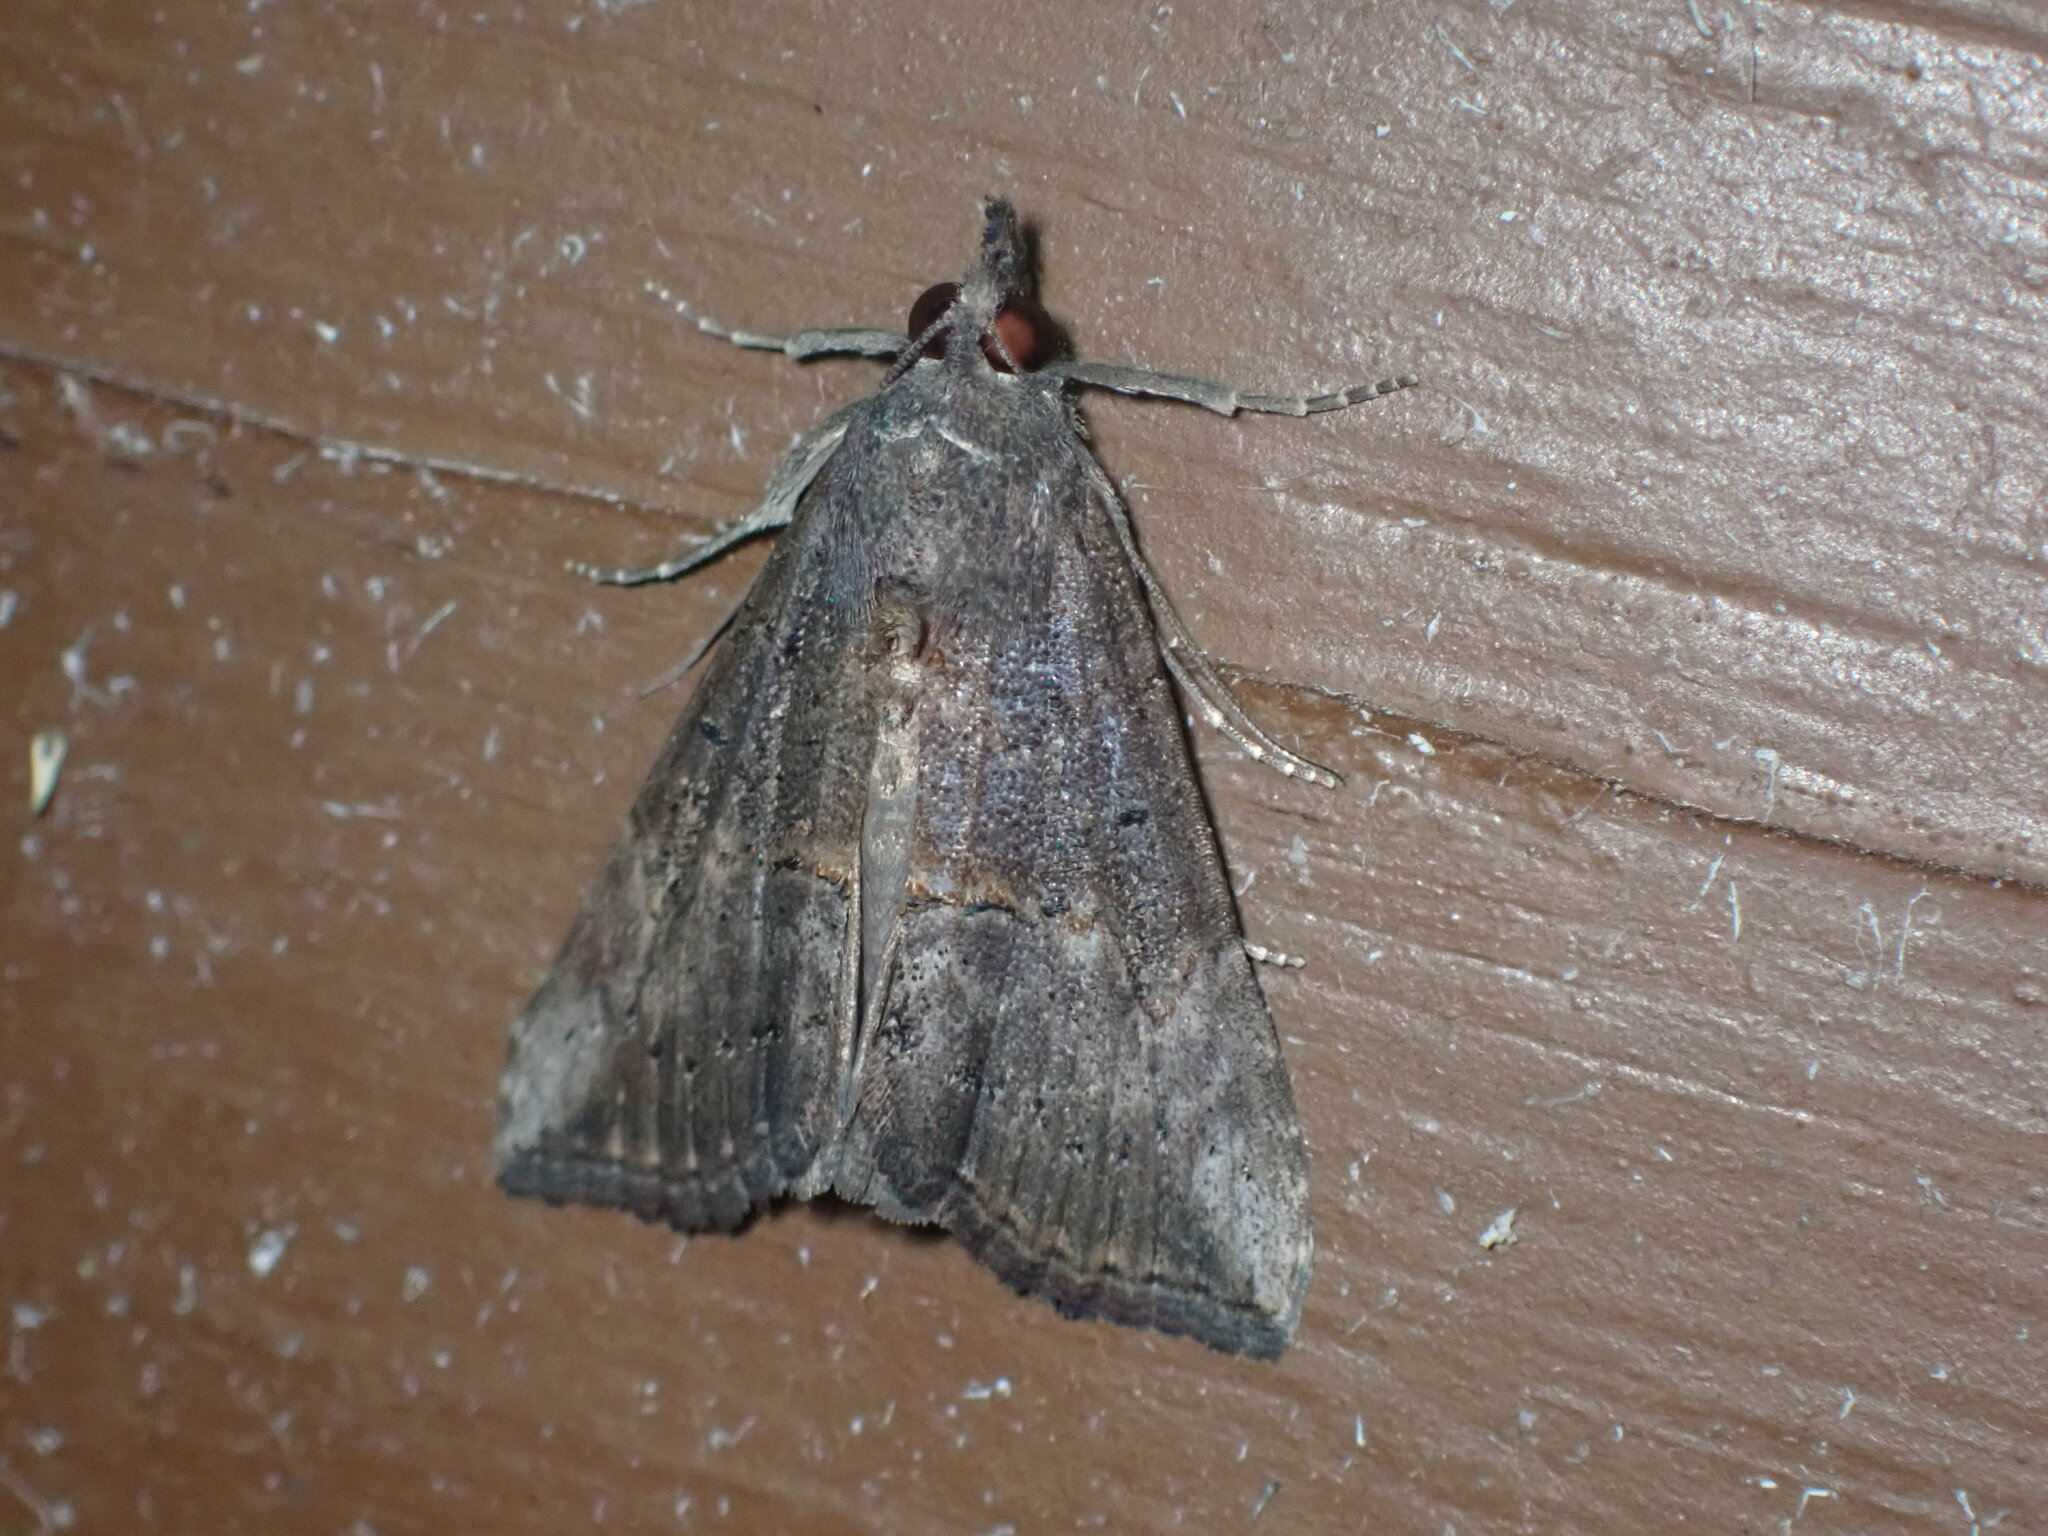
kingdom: Animalia
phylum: Arthropoda
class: Insecta
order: Lepidoptera
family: Erebidae
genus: Hypena
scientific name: Hypena scabra
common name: Green cloverworm
